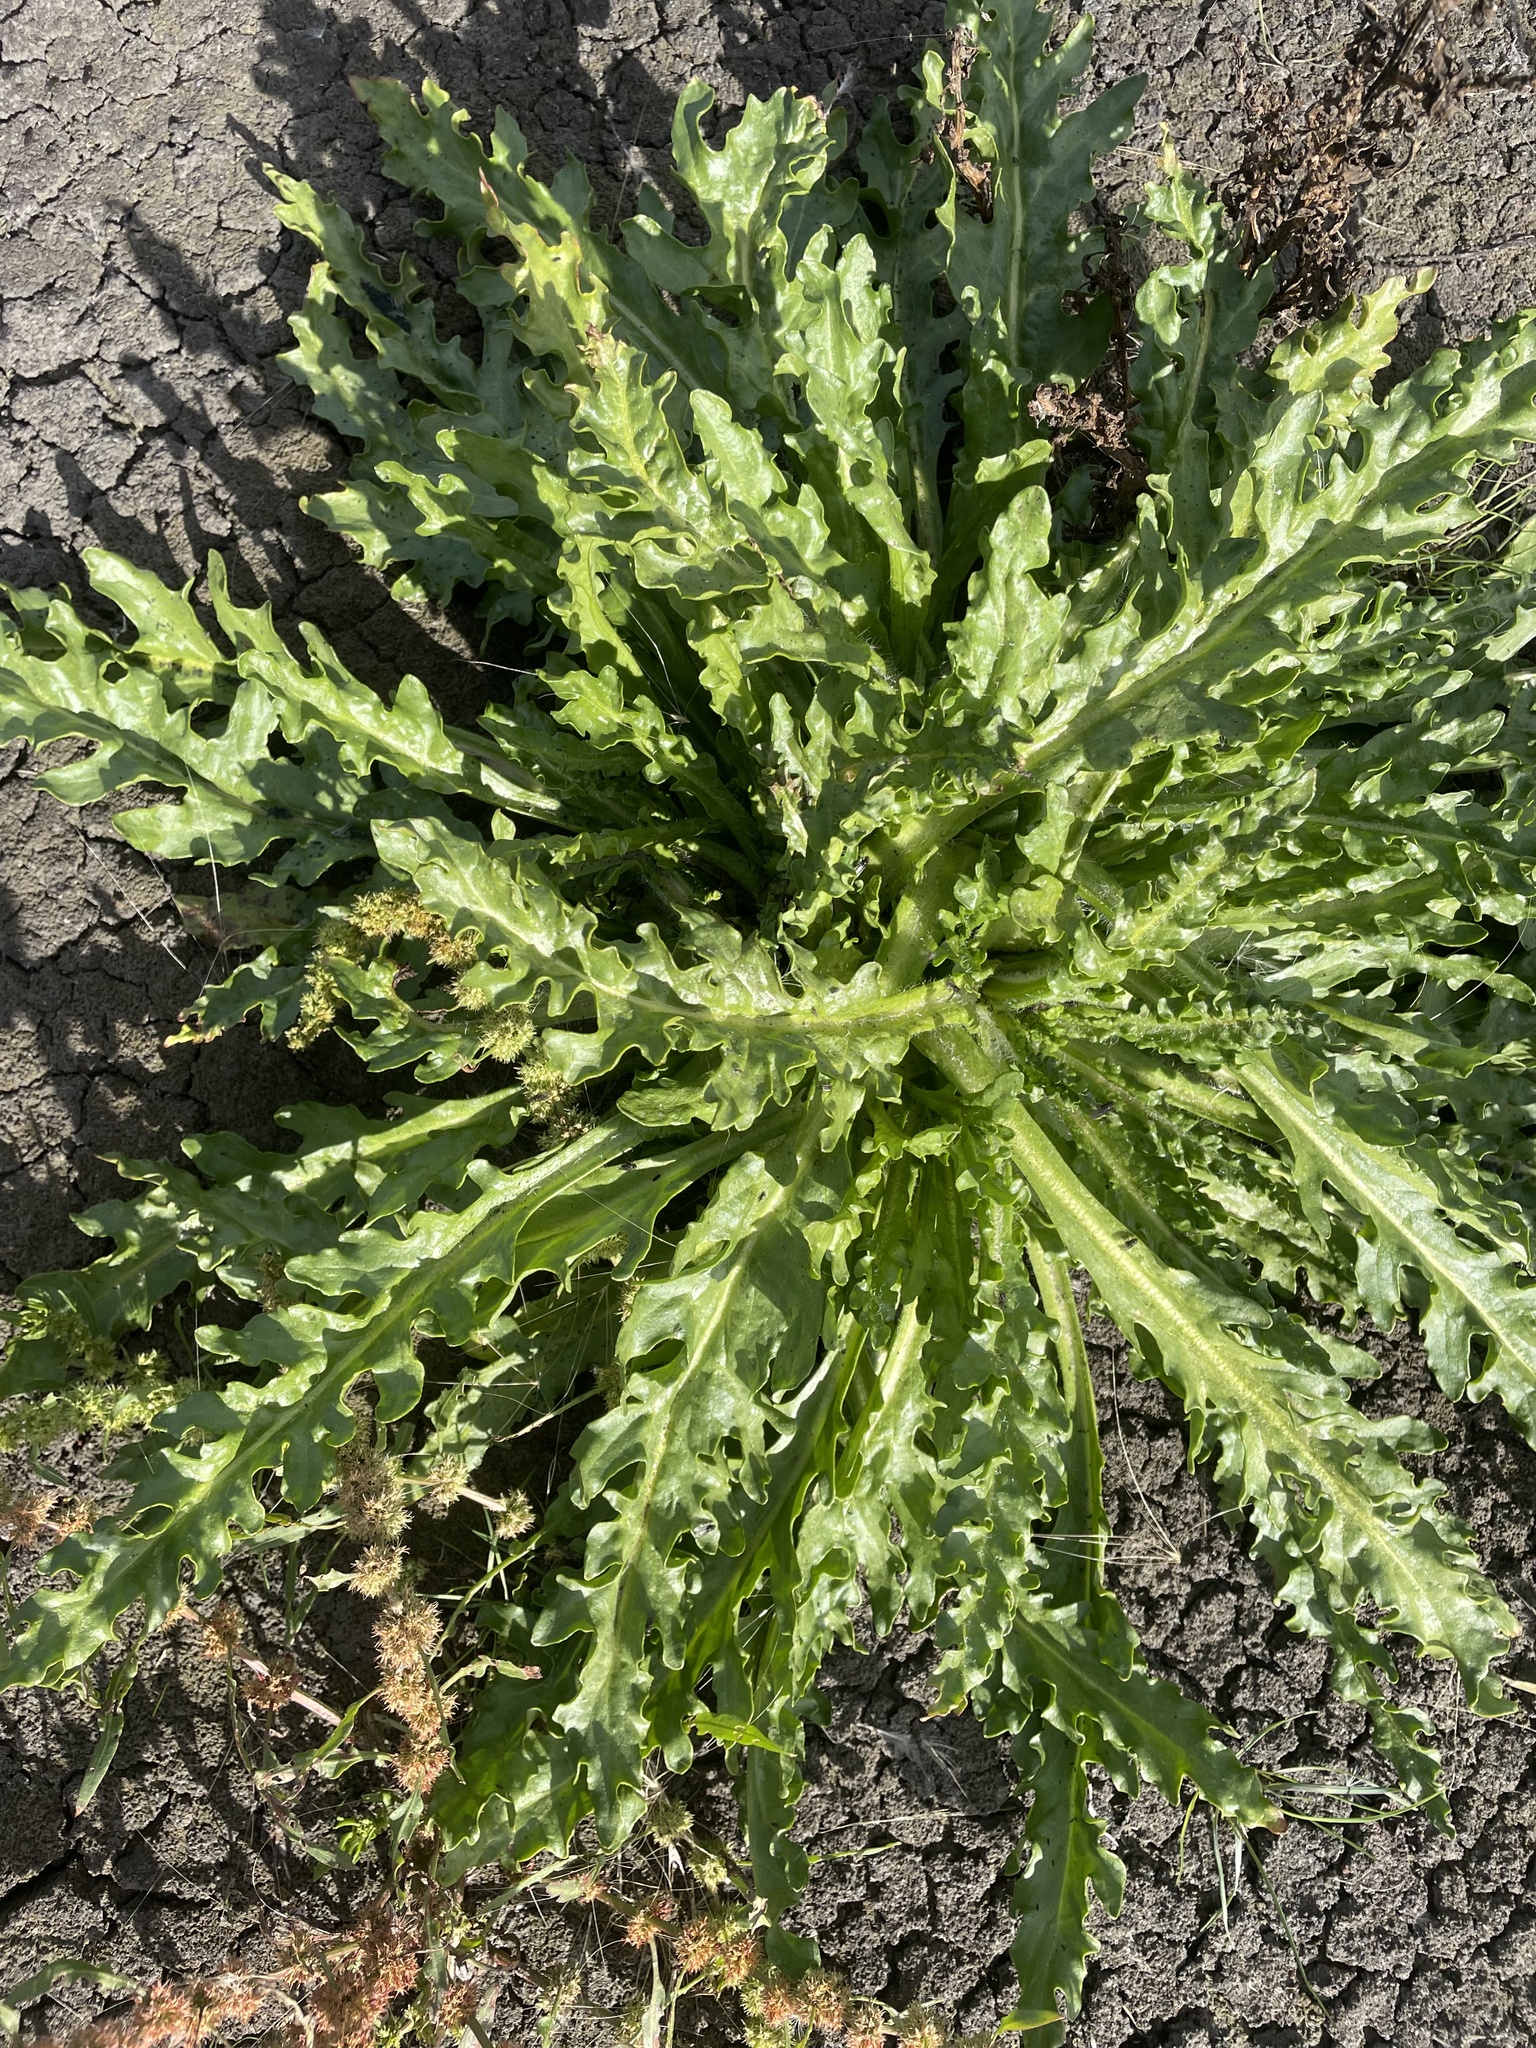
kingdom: Plantae
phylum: Tracheophyta
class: Magnoliopsida
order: Asterales
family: Asteraceae
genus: Tephroseris
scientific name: Tephroseris palustris
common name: Marsh fleawort
